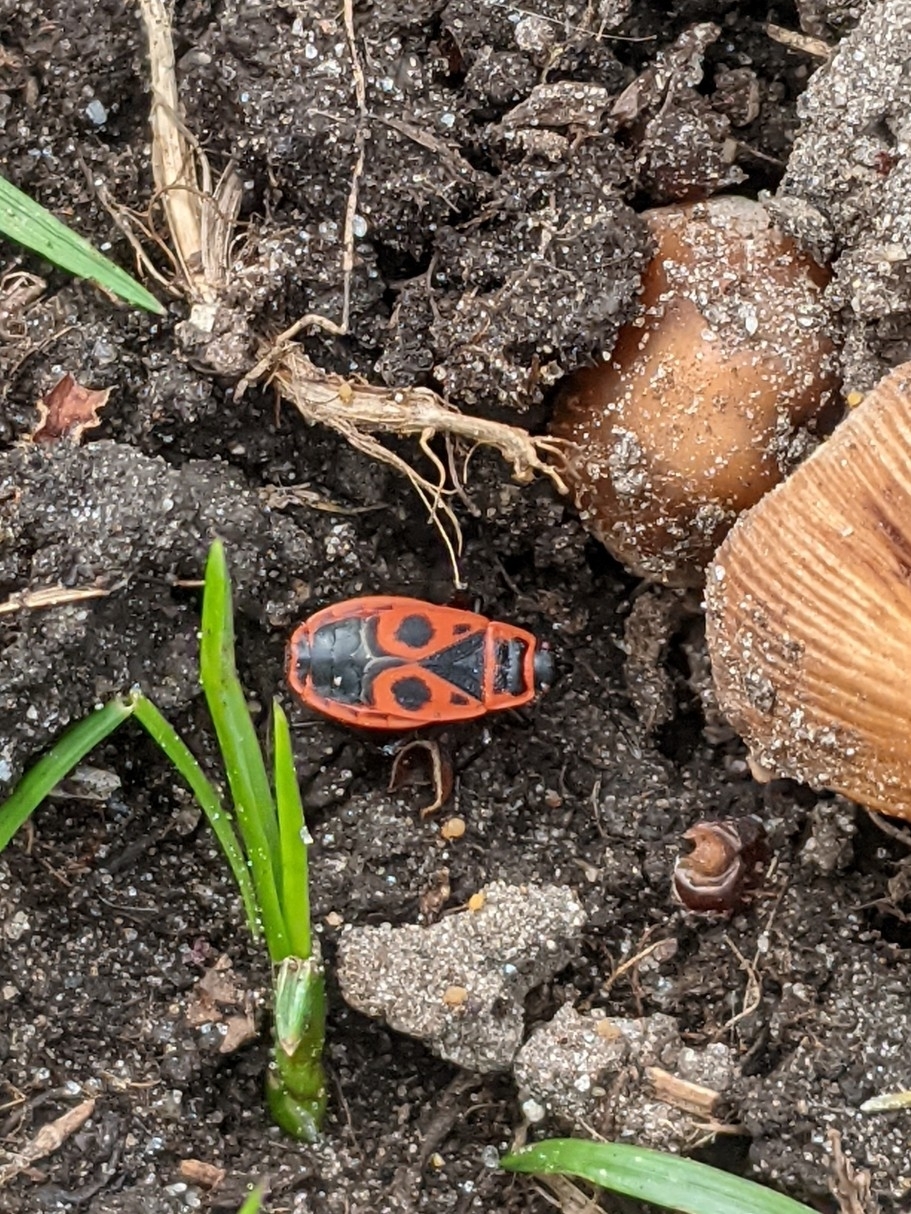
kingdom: Animalia
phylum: Arthropoda
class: Insecta
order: Hemiptera
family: Pyrrhocoridae
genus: Pyrrhocoris
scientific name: Pyrrhocoris apterus
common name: Firebug
